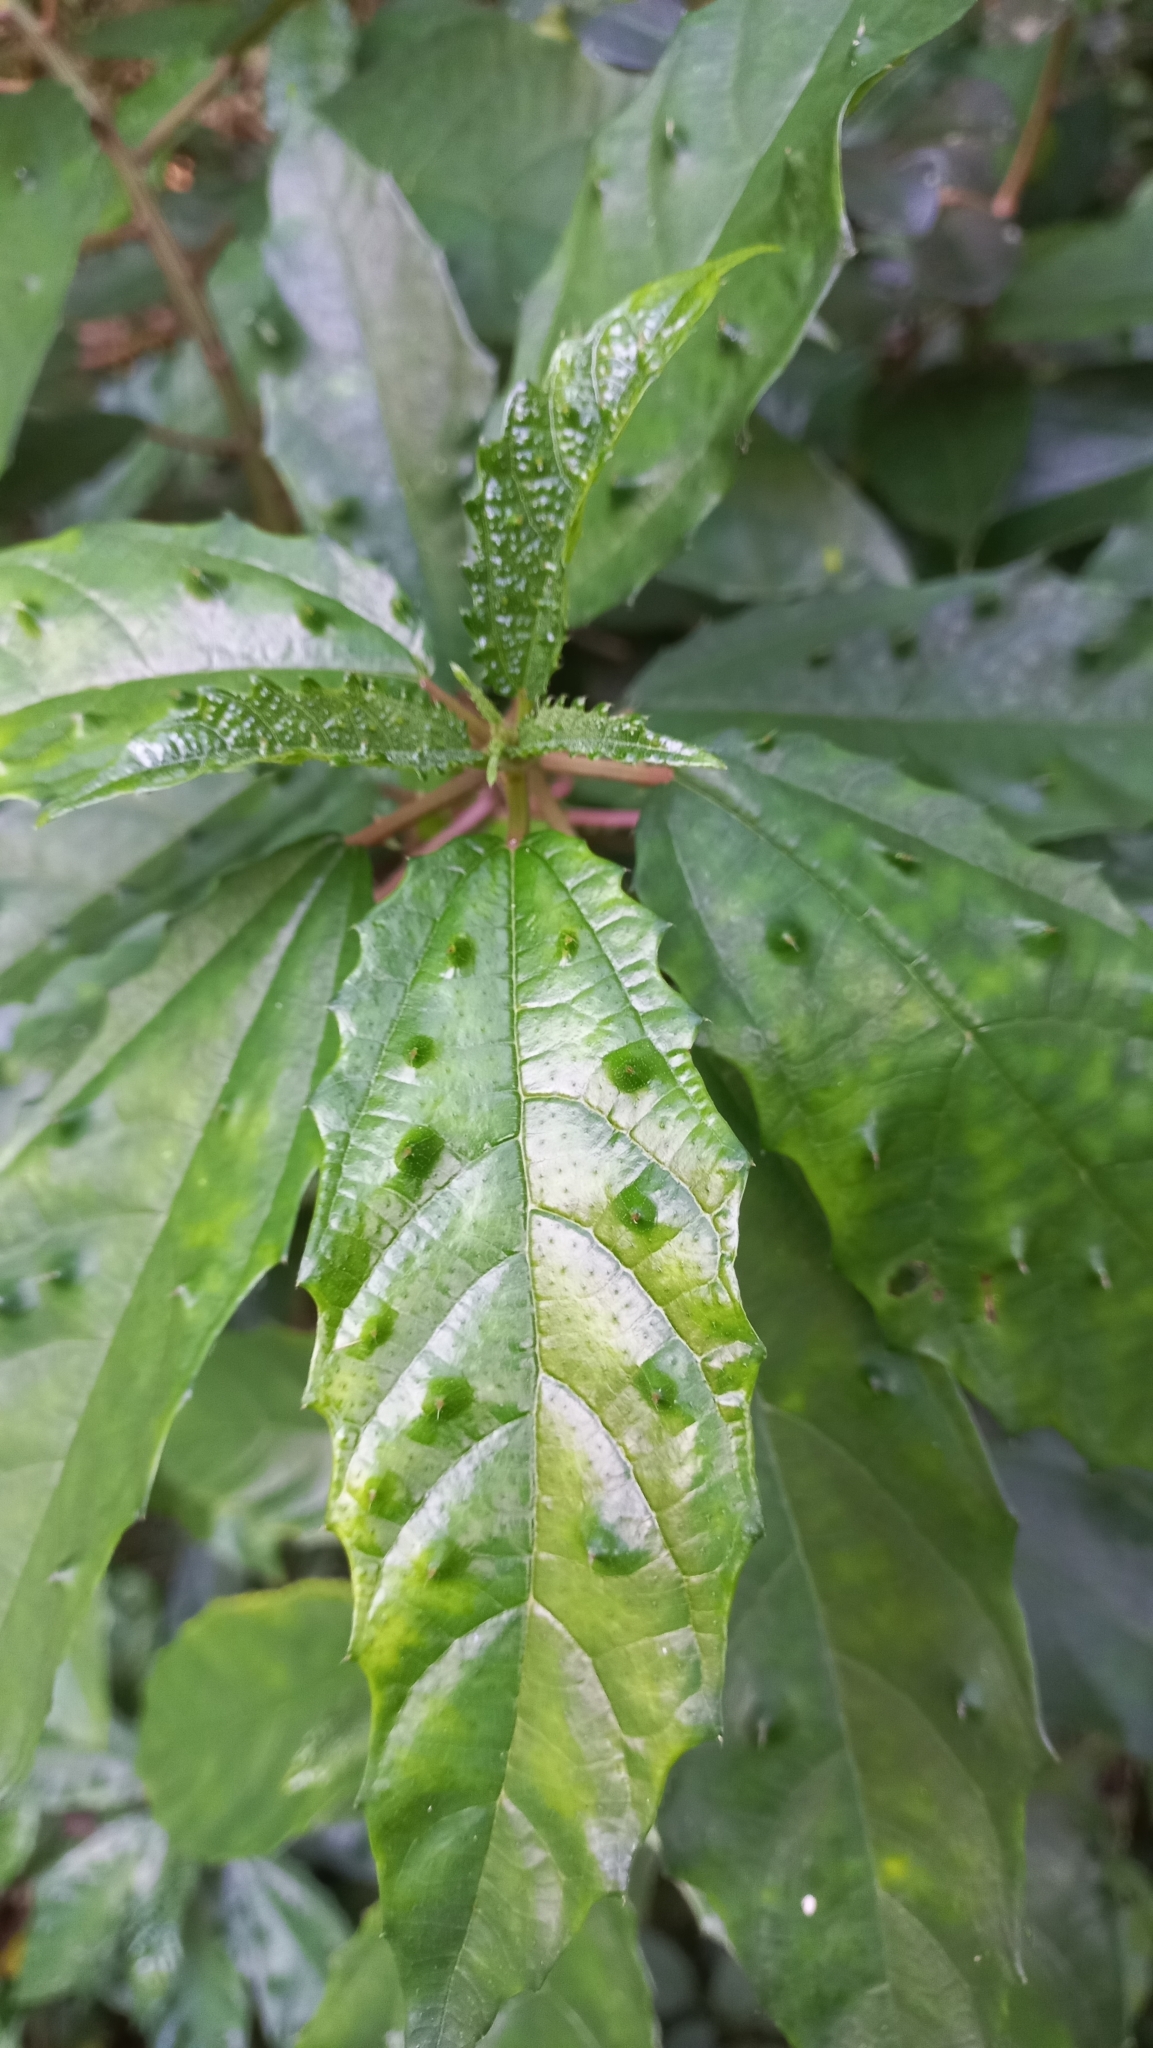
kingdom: Plantae
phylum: Tracheophyta
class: Magnoliopsida
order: Rosales
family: Urticaceae
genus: Urera
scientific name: Urera nitida
